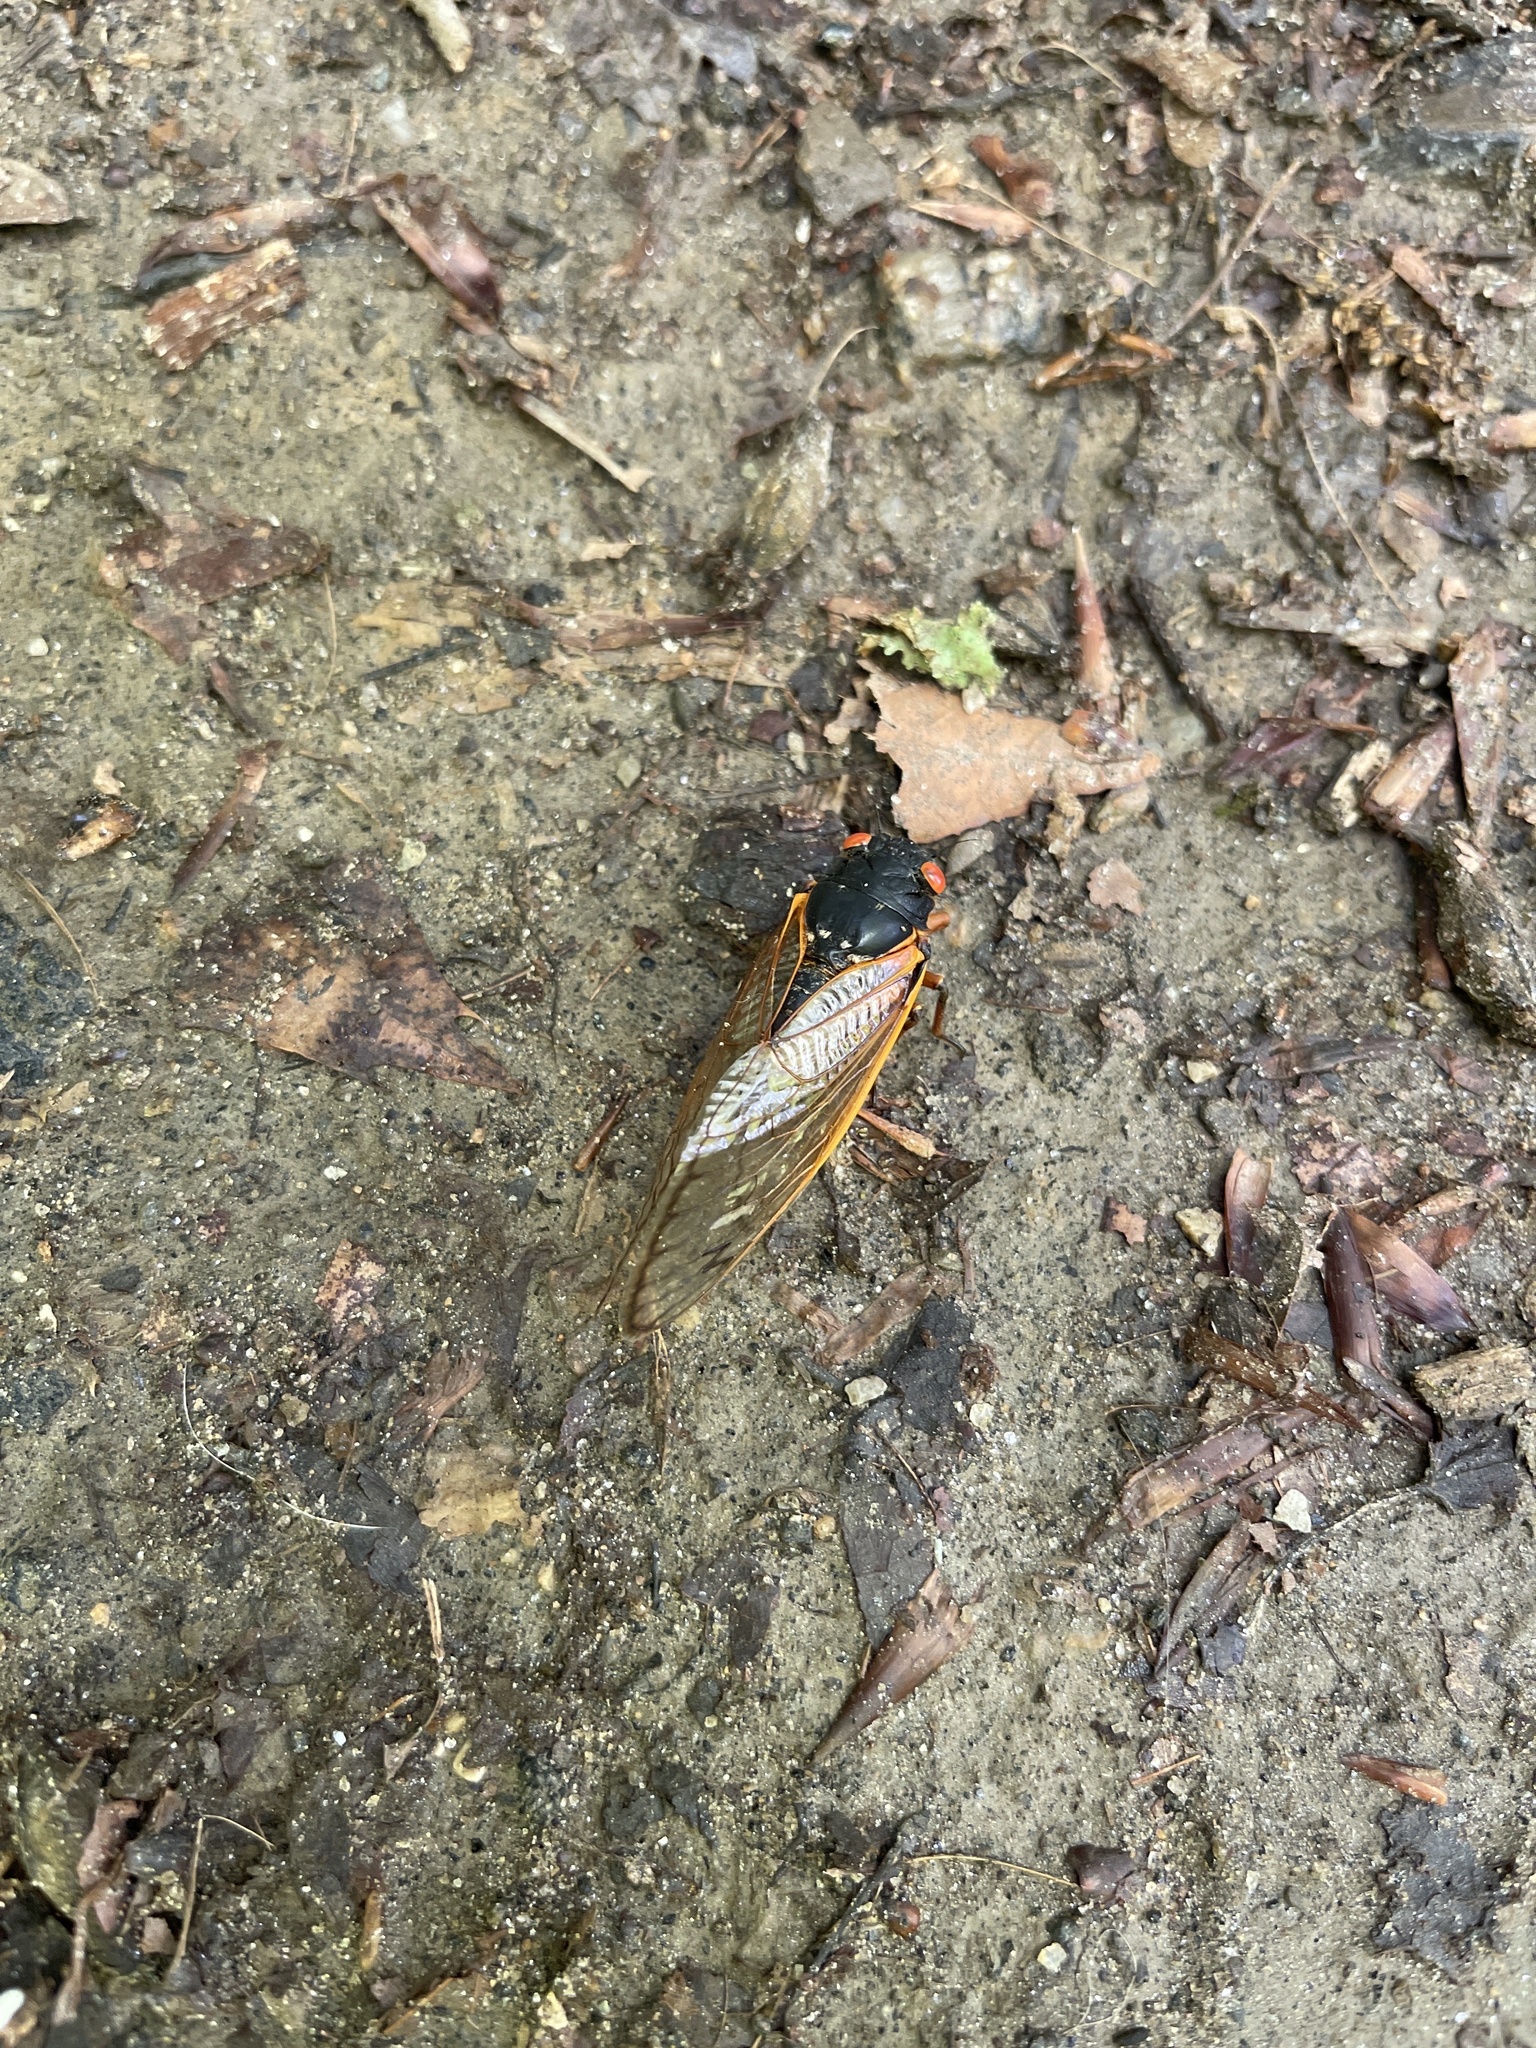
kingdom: Animalia
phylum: Arthropoda
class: Insecta
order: Hemiptera
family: Cicadidae
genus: Magicicada
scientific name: Magicicada
